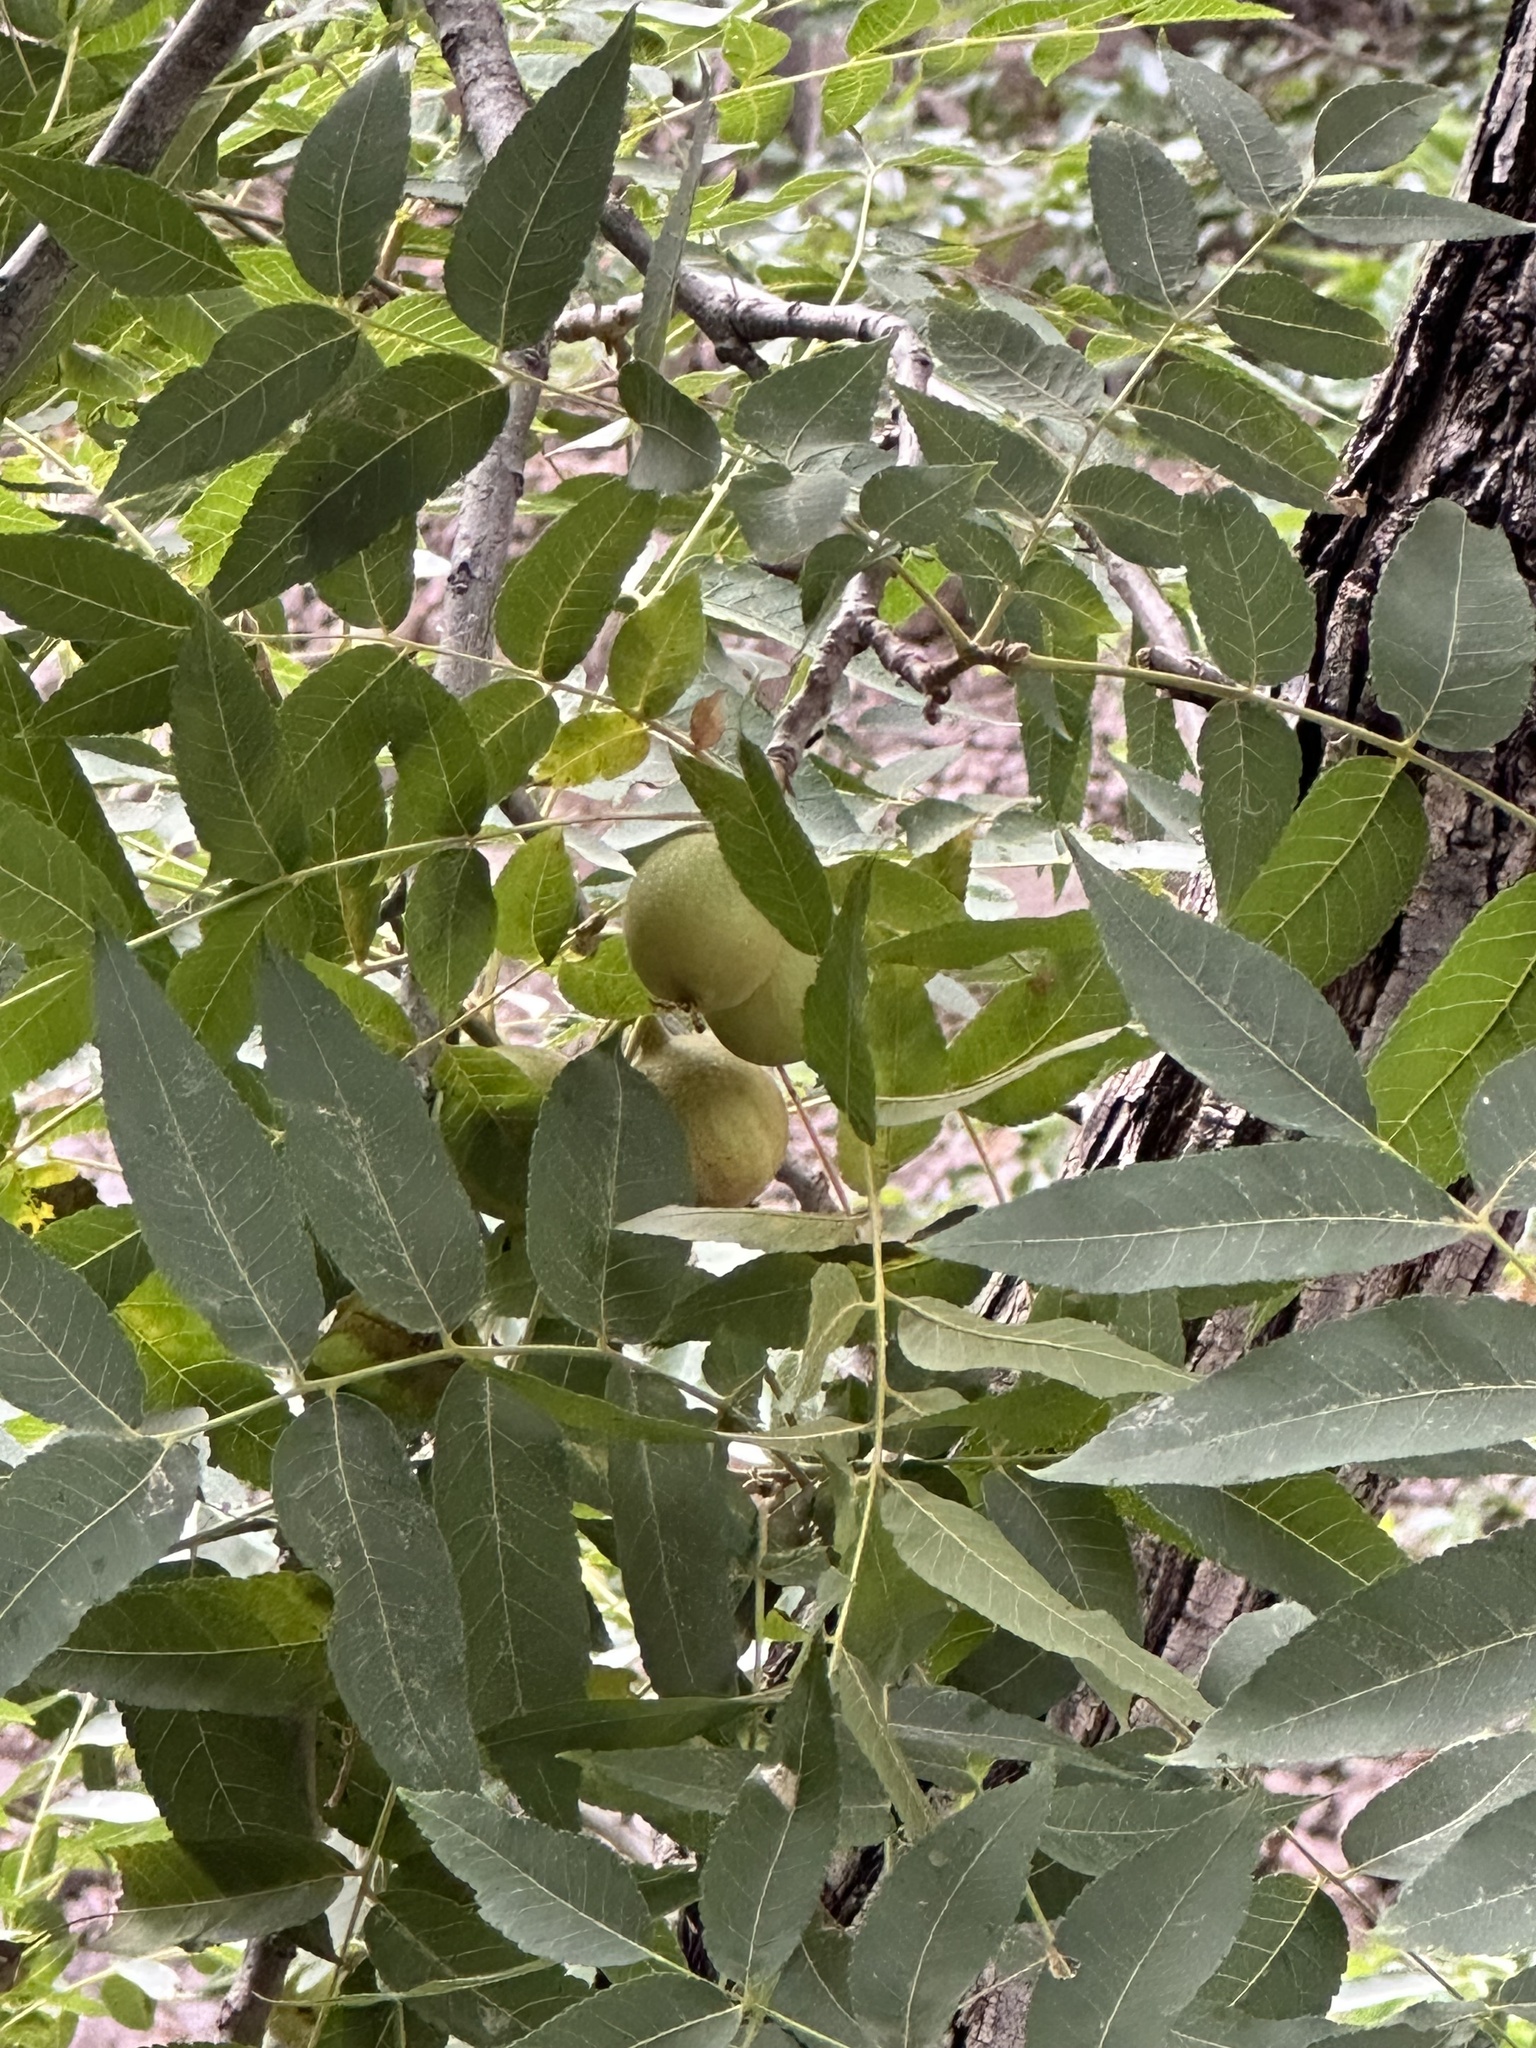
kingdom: Plantae
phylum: Tracheophyta
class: Magnoliopsida
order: Fagales
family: Juglandaceae
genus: Juglans
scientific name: Juglans major
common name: Arizona walnut
